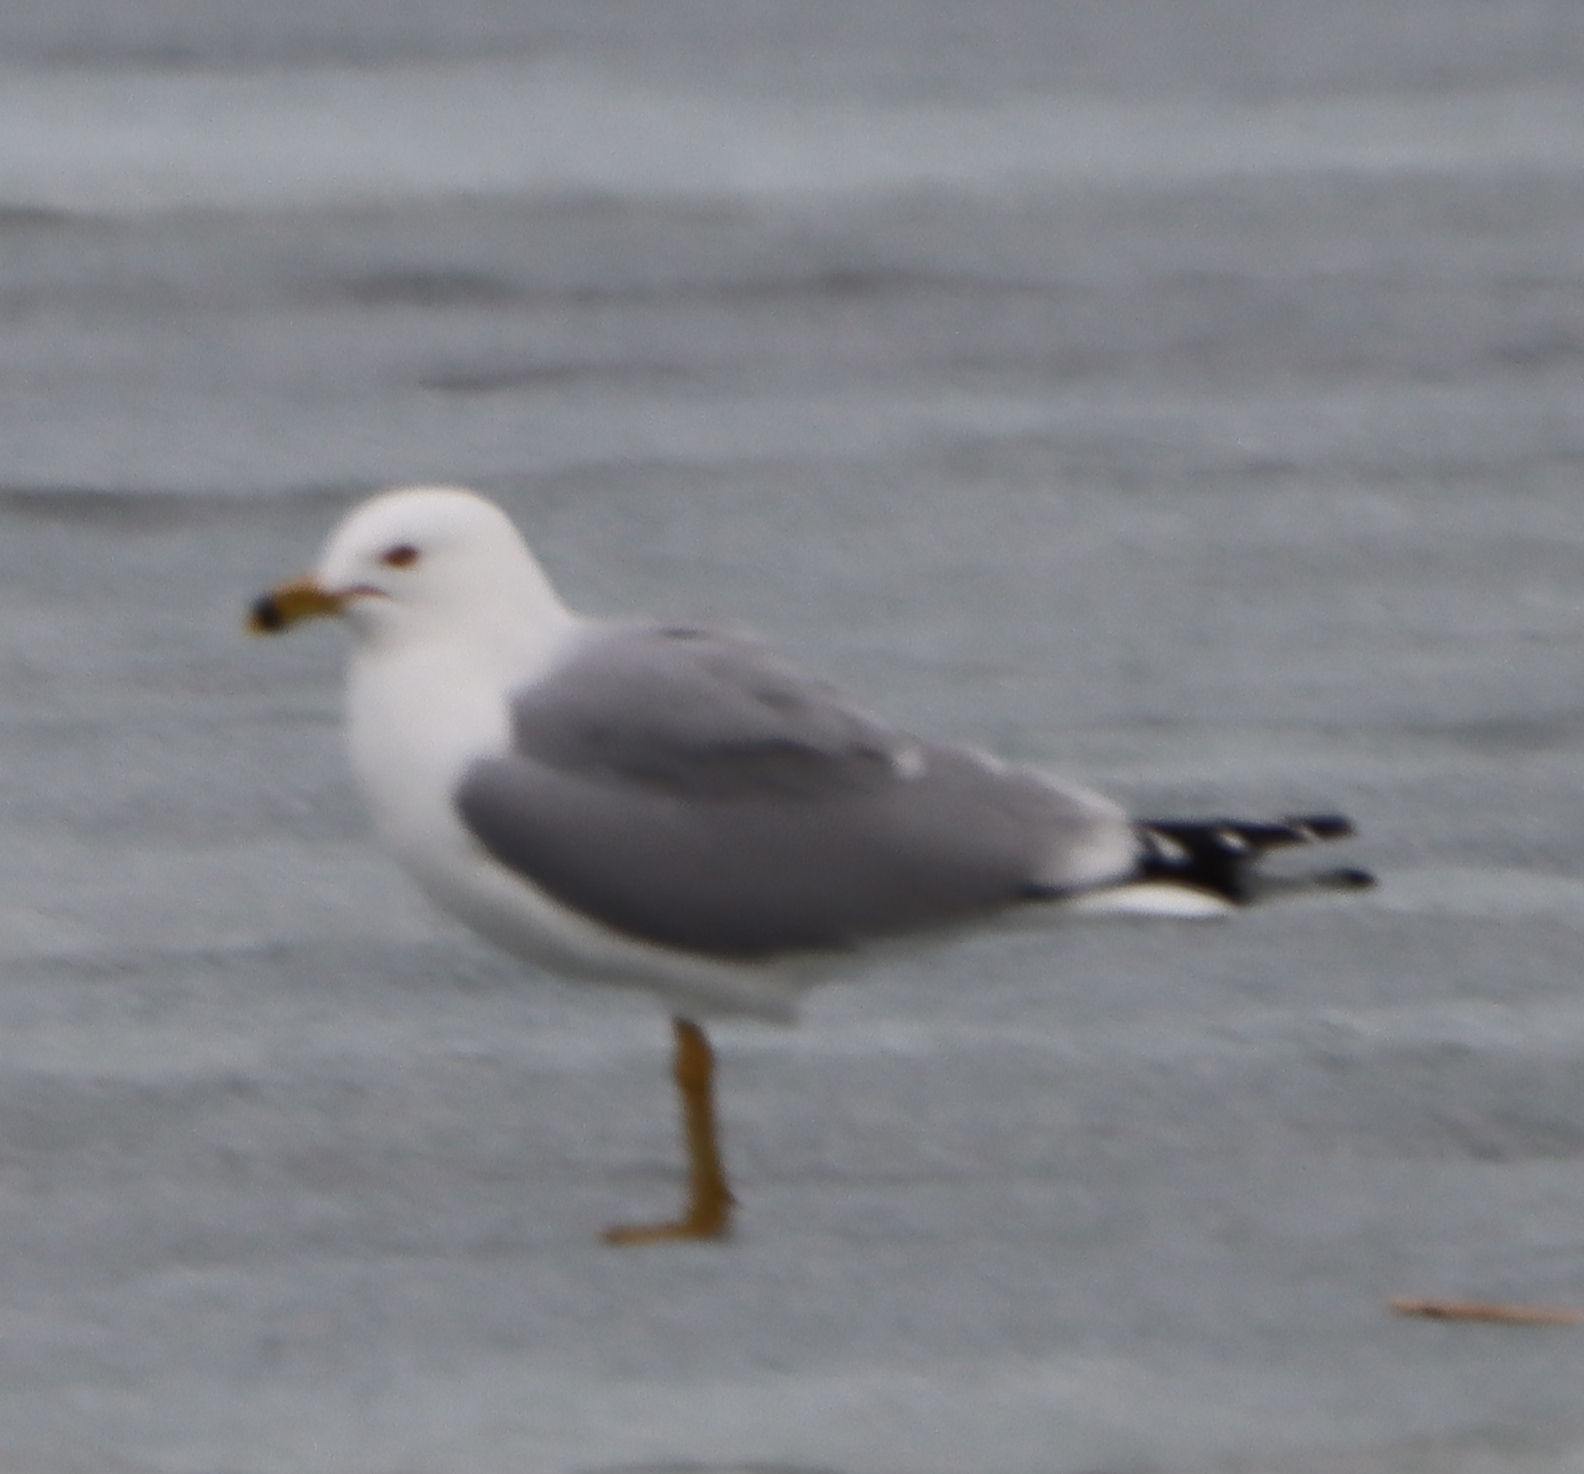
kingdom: Animalia
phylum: Chordata
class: Aves
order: Charadriiformes
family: Laridae
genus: Larus
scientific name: Larus delawarensis
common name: Ring-billed gull
